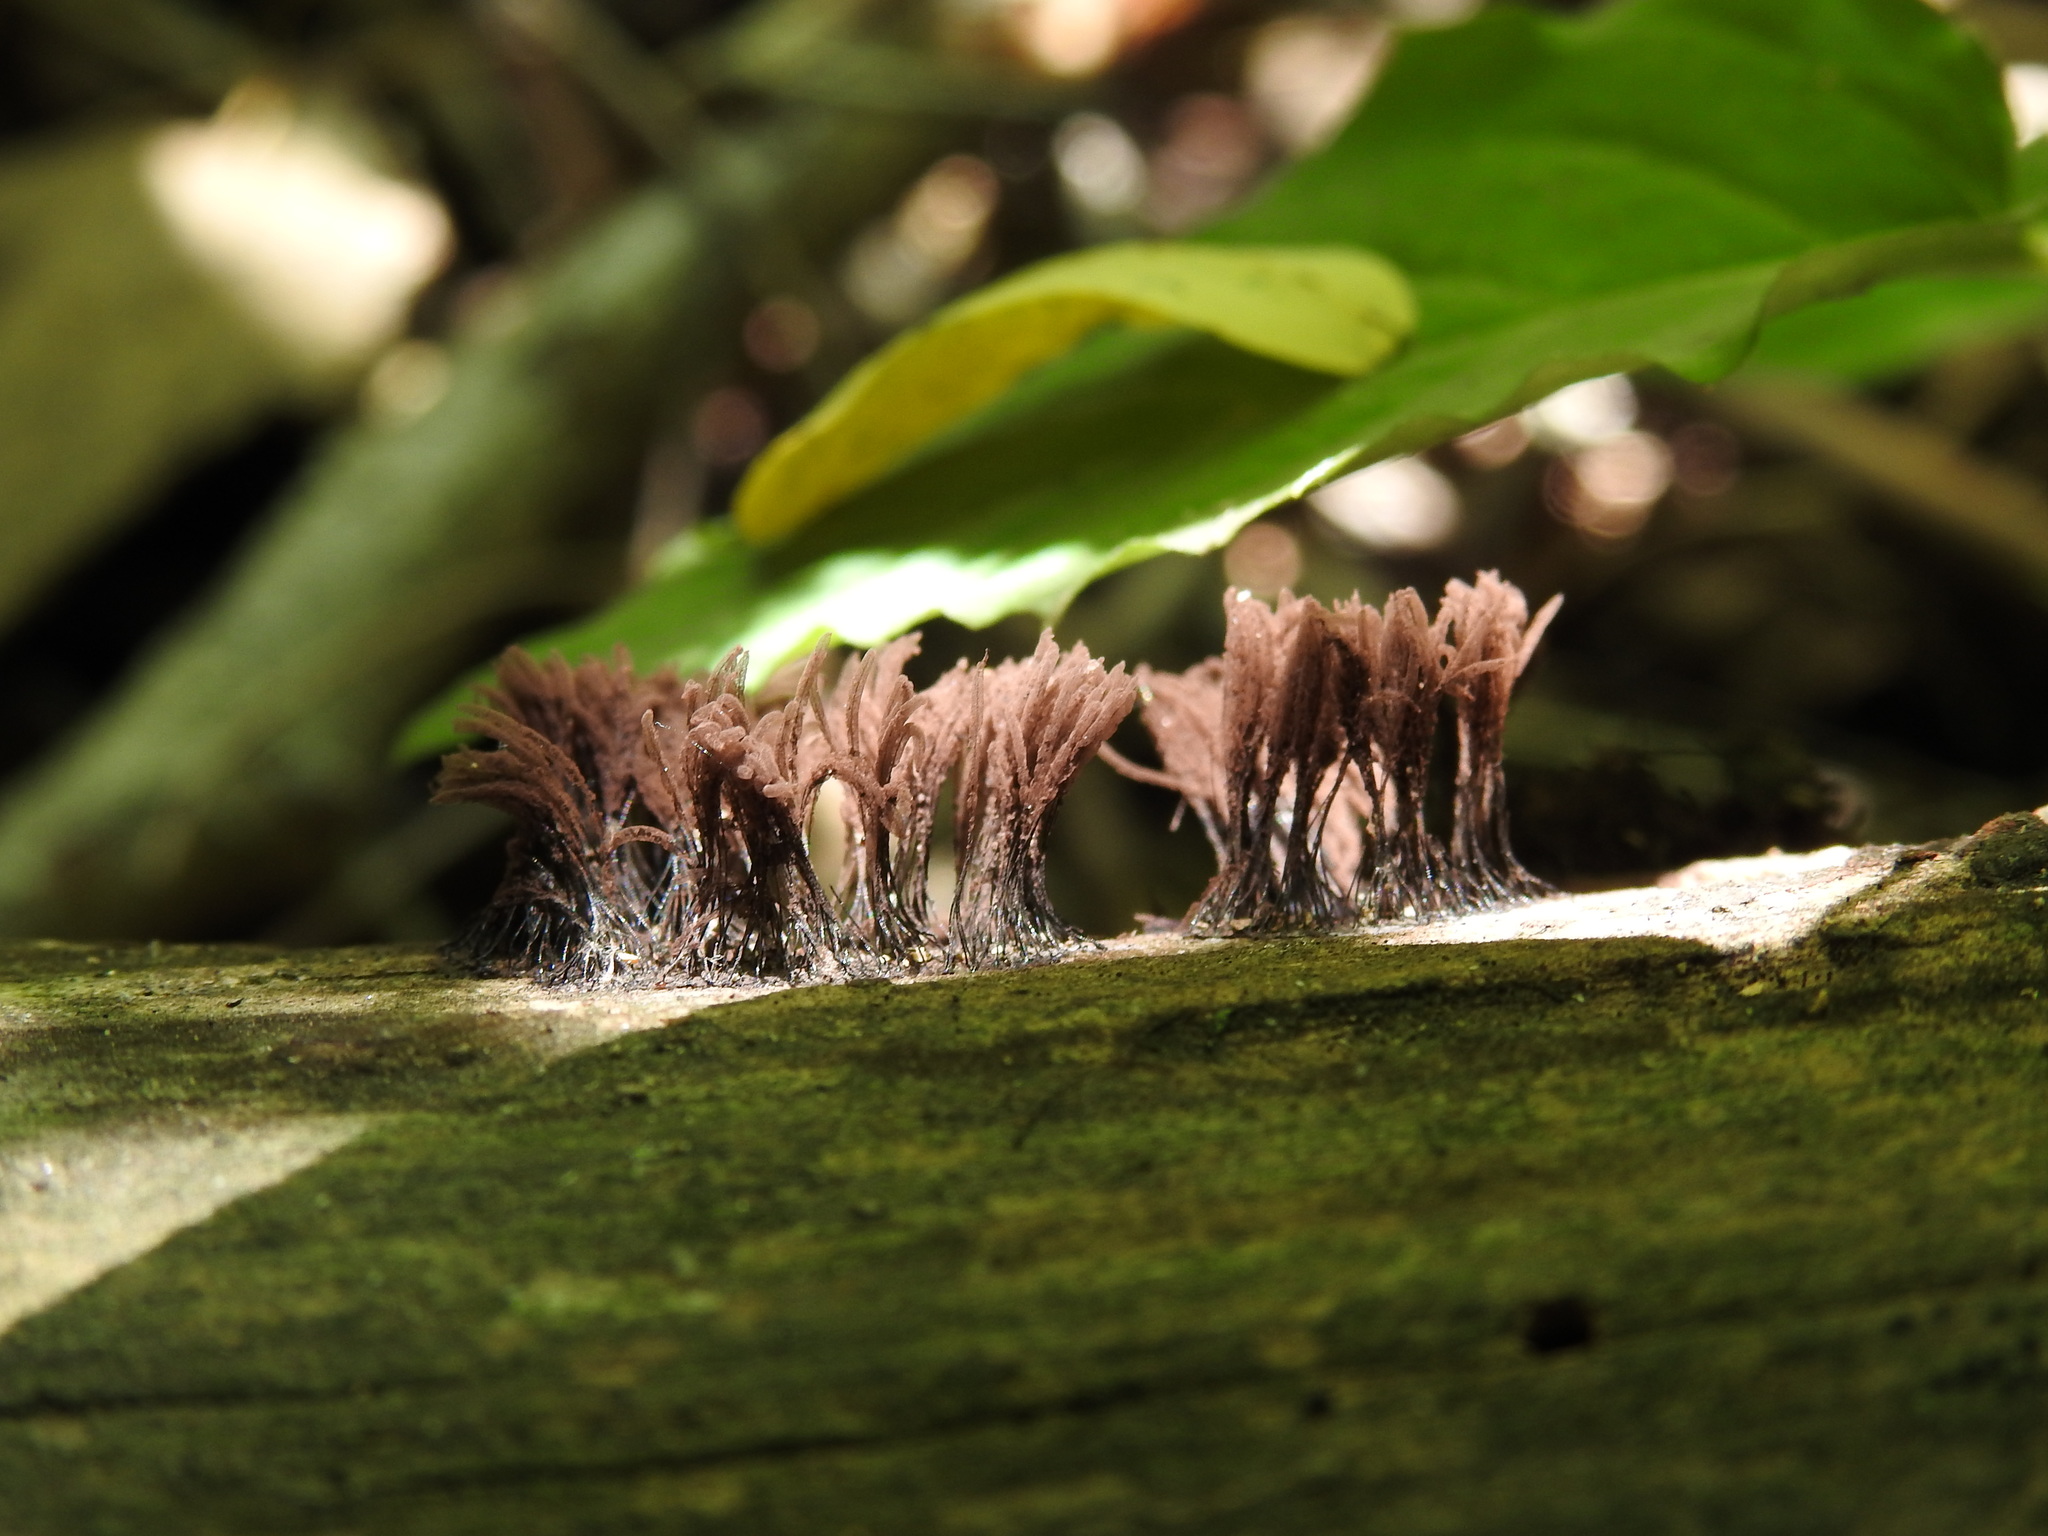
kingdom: Protozoa
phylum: Mycetozoa
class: Myxomycetes
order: Stemonitidales
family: Stemonitidaceae
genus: Stemonitis
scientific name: Stemonitis splendens
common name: Chocolate tube slime
